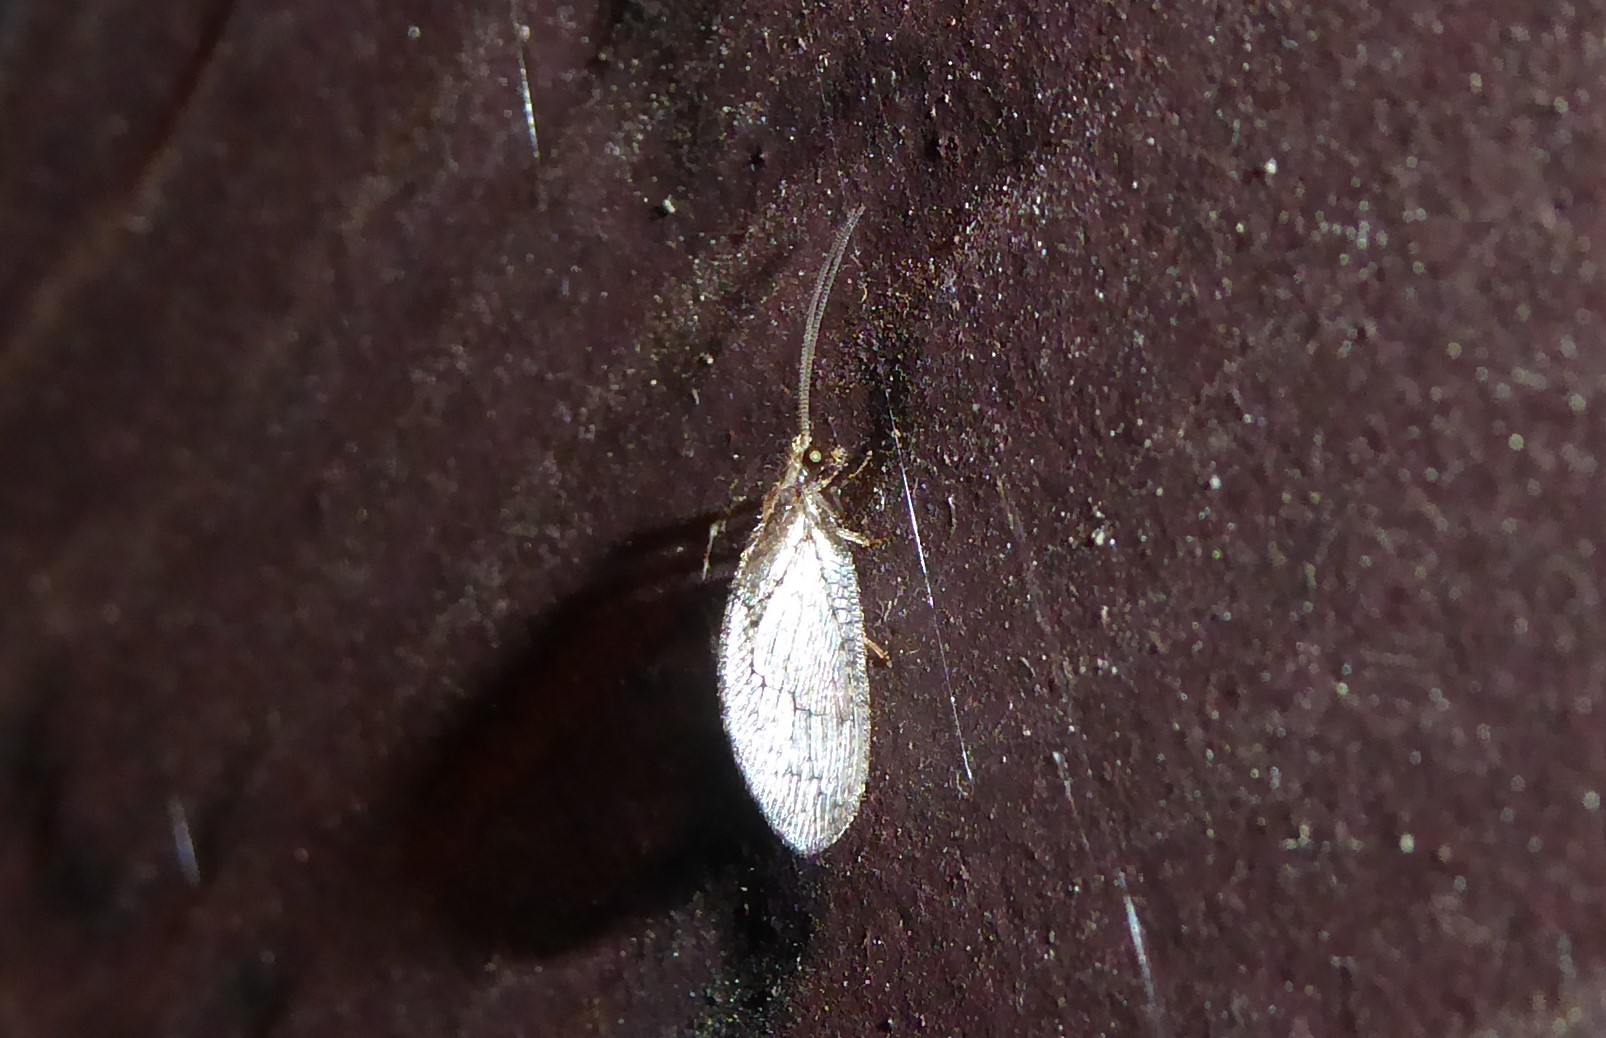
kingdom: Animalia
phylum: Arthropoda
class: Insecta
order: Neuroptera
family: Hemerobiidae
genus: Wesmaelius
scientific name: Wesmaelius subnebulosus
